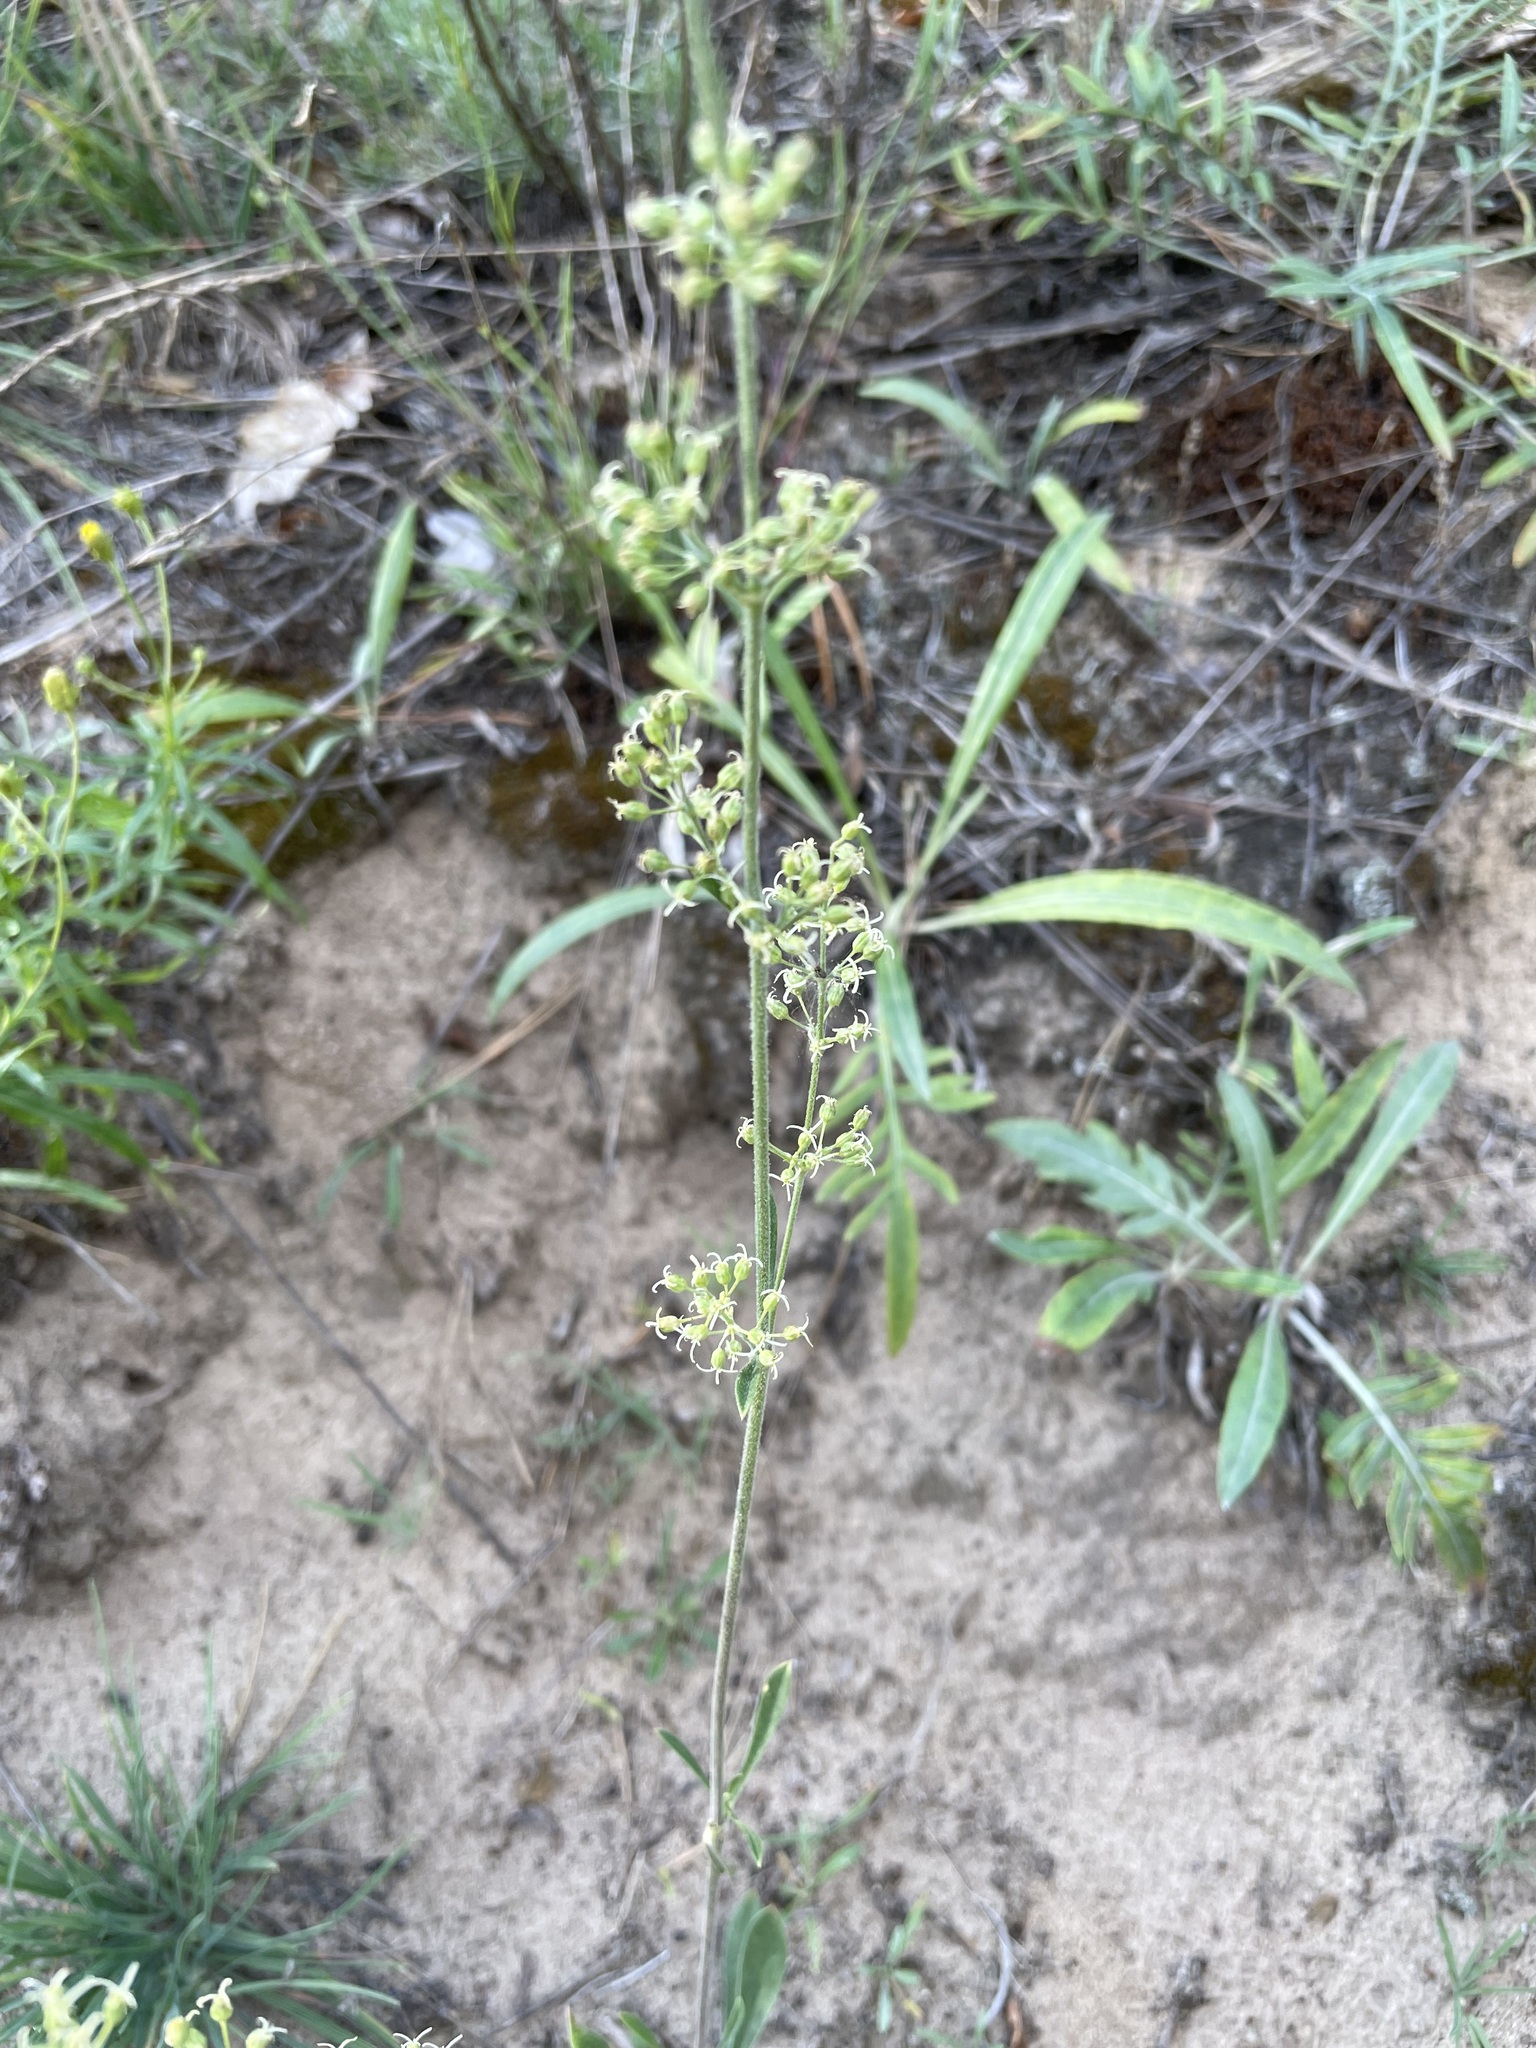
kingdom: Plantae
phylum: Tracheophyta
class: Magnoliopsida
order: Caryophyllales
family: Caryophyllaceae
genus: Silene
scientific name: Silene borysthenica
